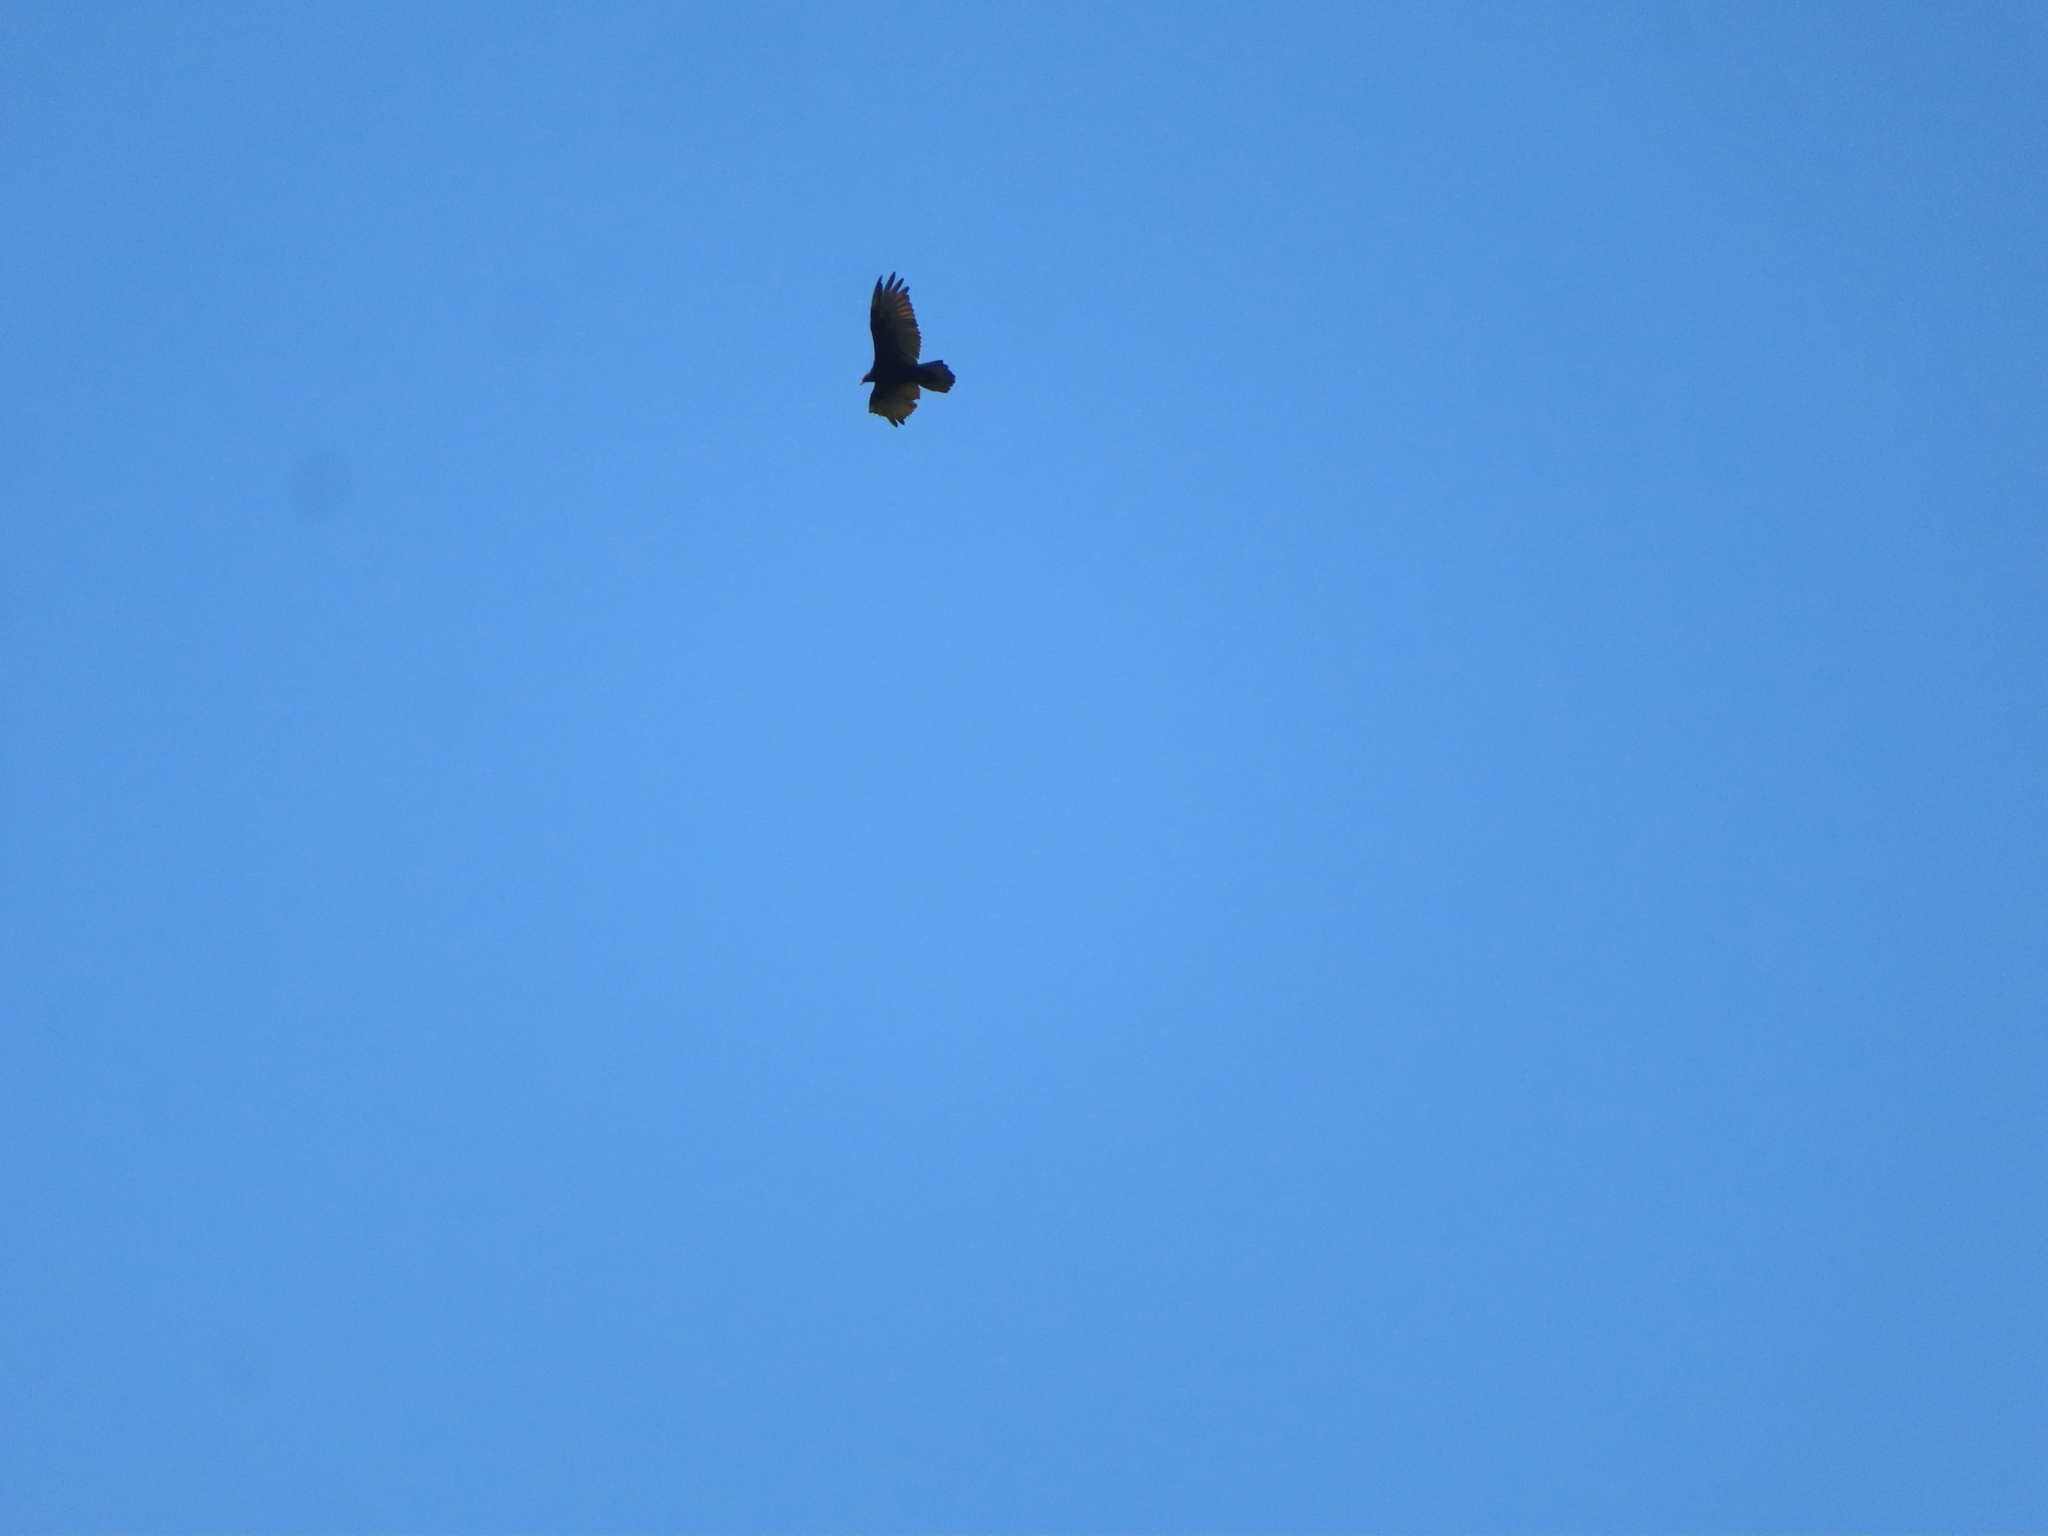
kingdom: Animalia
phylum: Chordata
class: Aves
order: Accipitriformes
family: Cathartidae
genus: Cathartes
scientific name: Cathartes aura
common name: Turkey vulture
